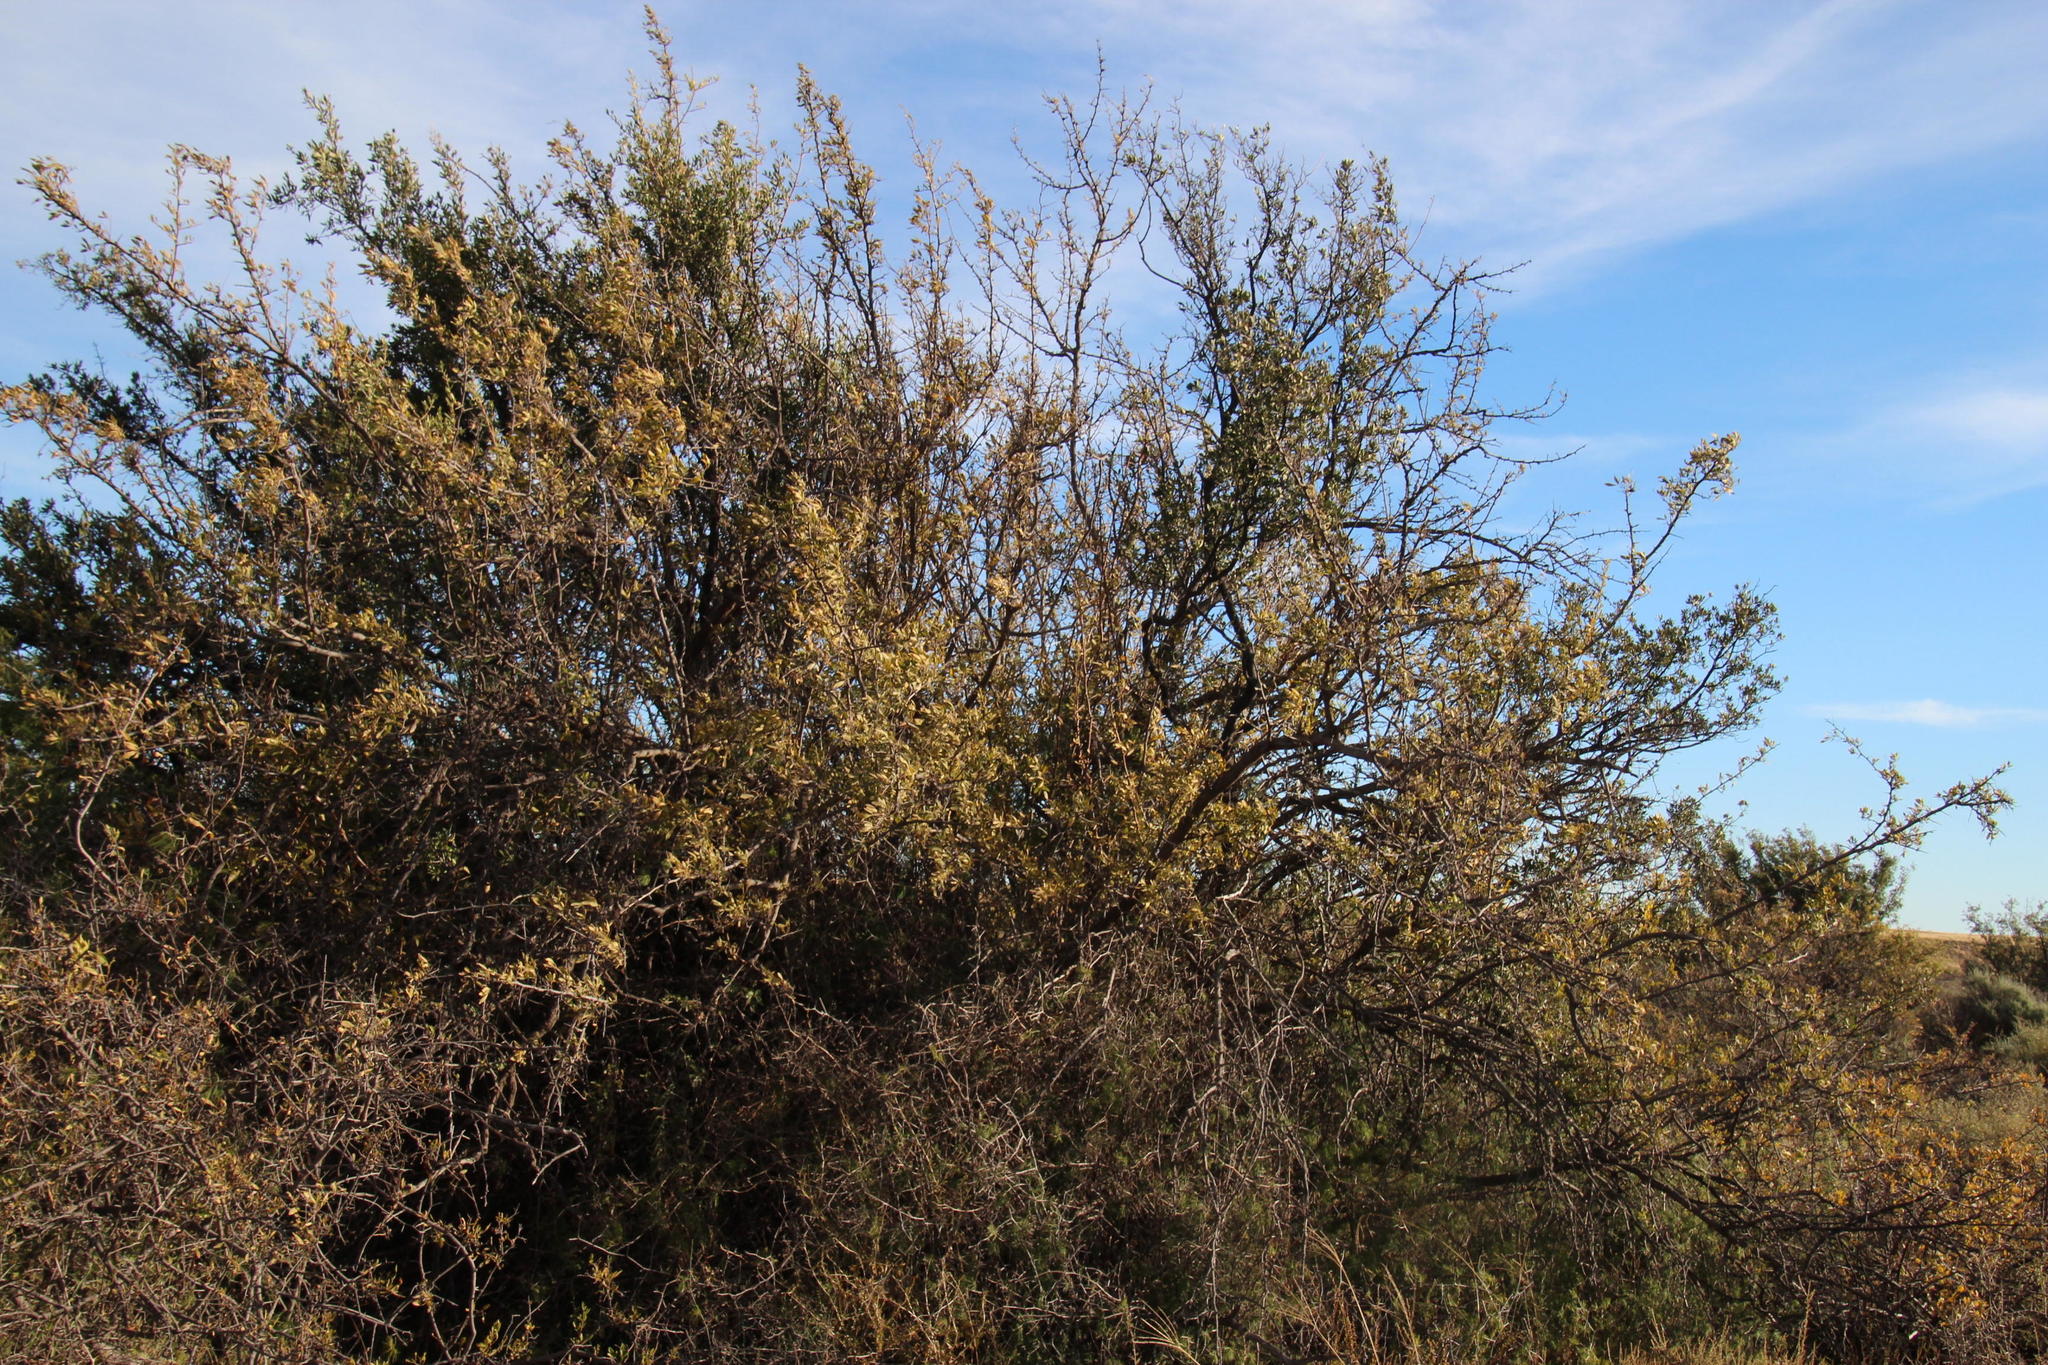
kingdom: Plantae
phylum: Tracheophyta
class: Magnoliopsida
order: Ericales
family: Ebenaceae
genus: Diospyros
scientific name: Diospyros lycioides
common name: Red star apple
